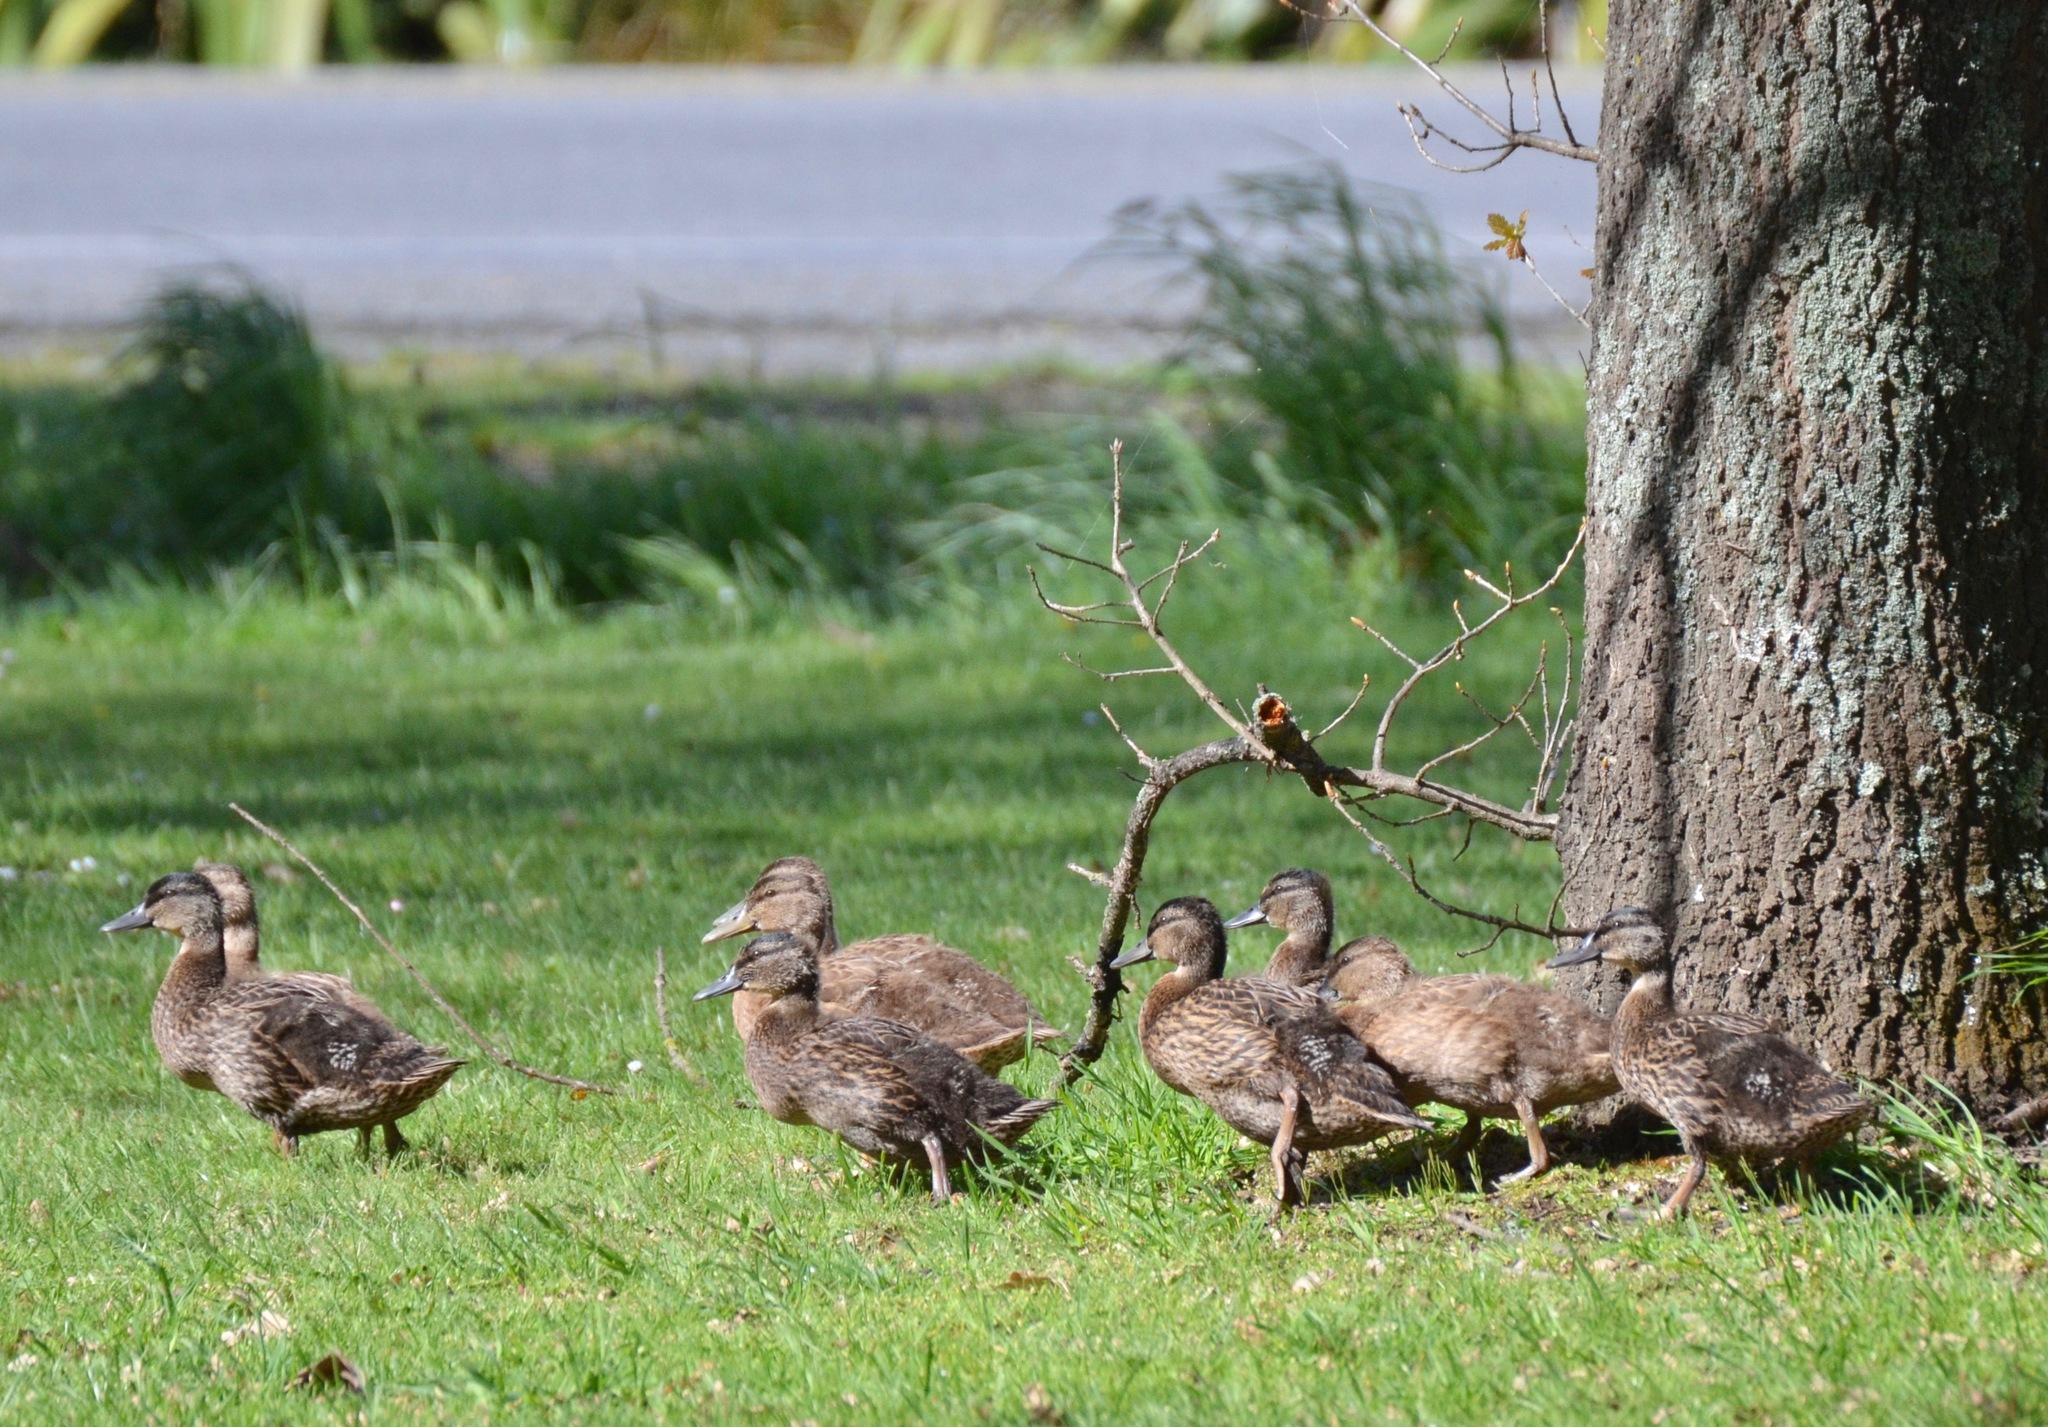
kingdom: Animalia
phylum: Chordata
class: Aves
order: Anseriformes
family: Anatidae
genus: Anas
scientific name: Anas
